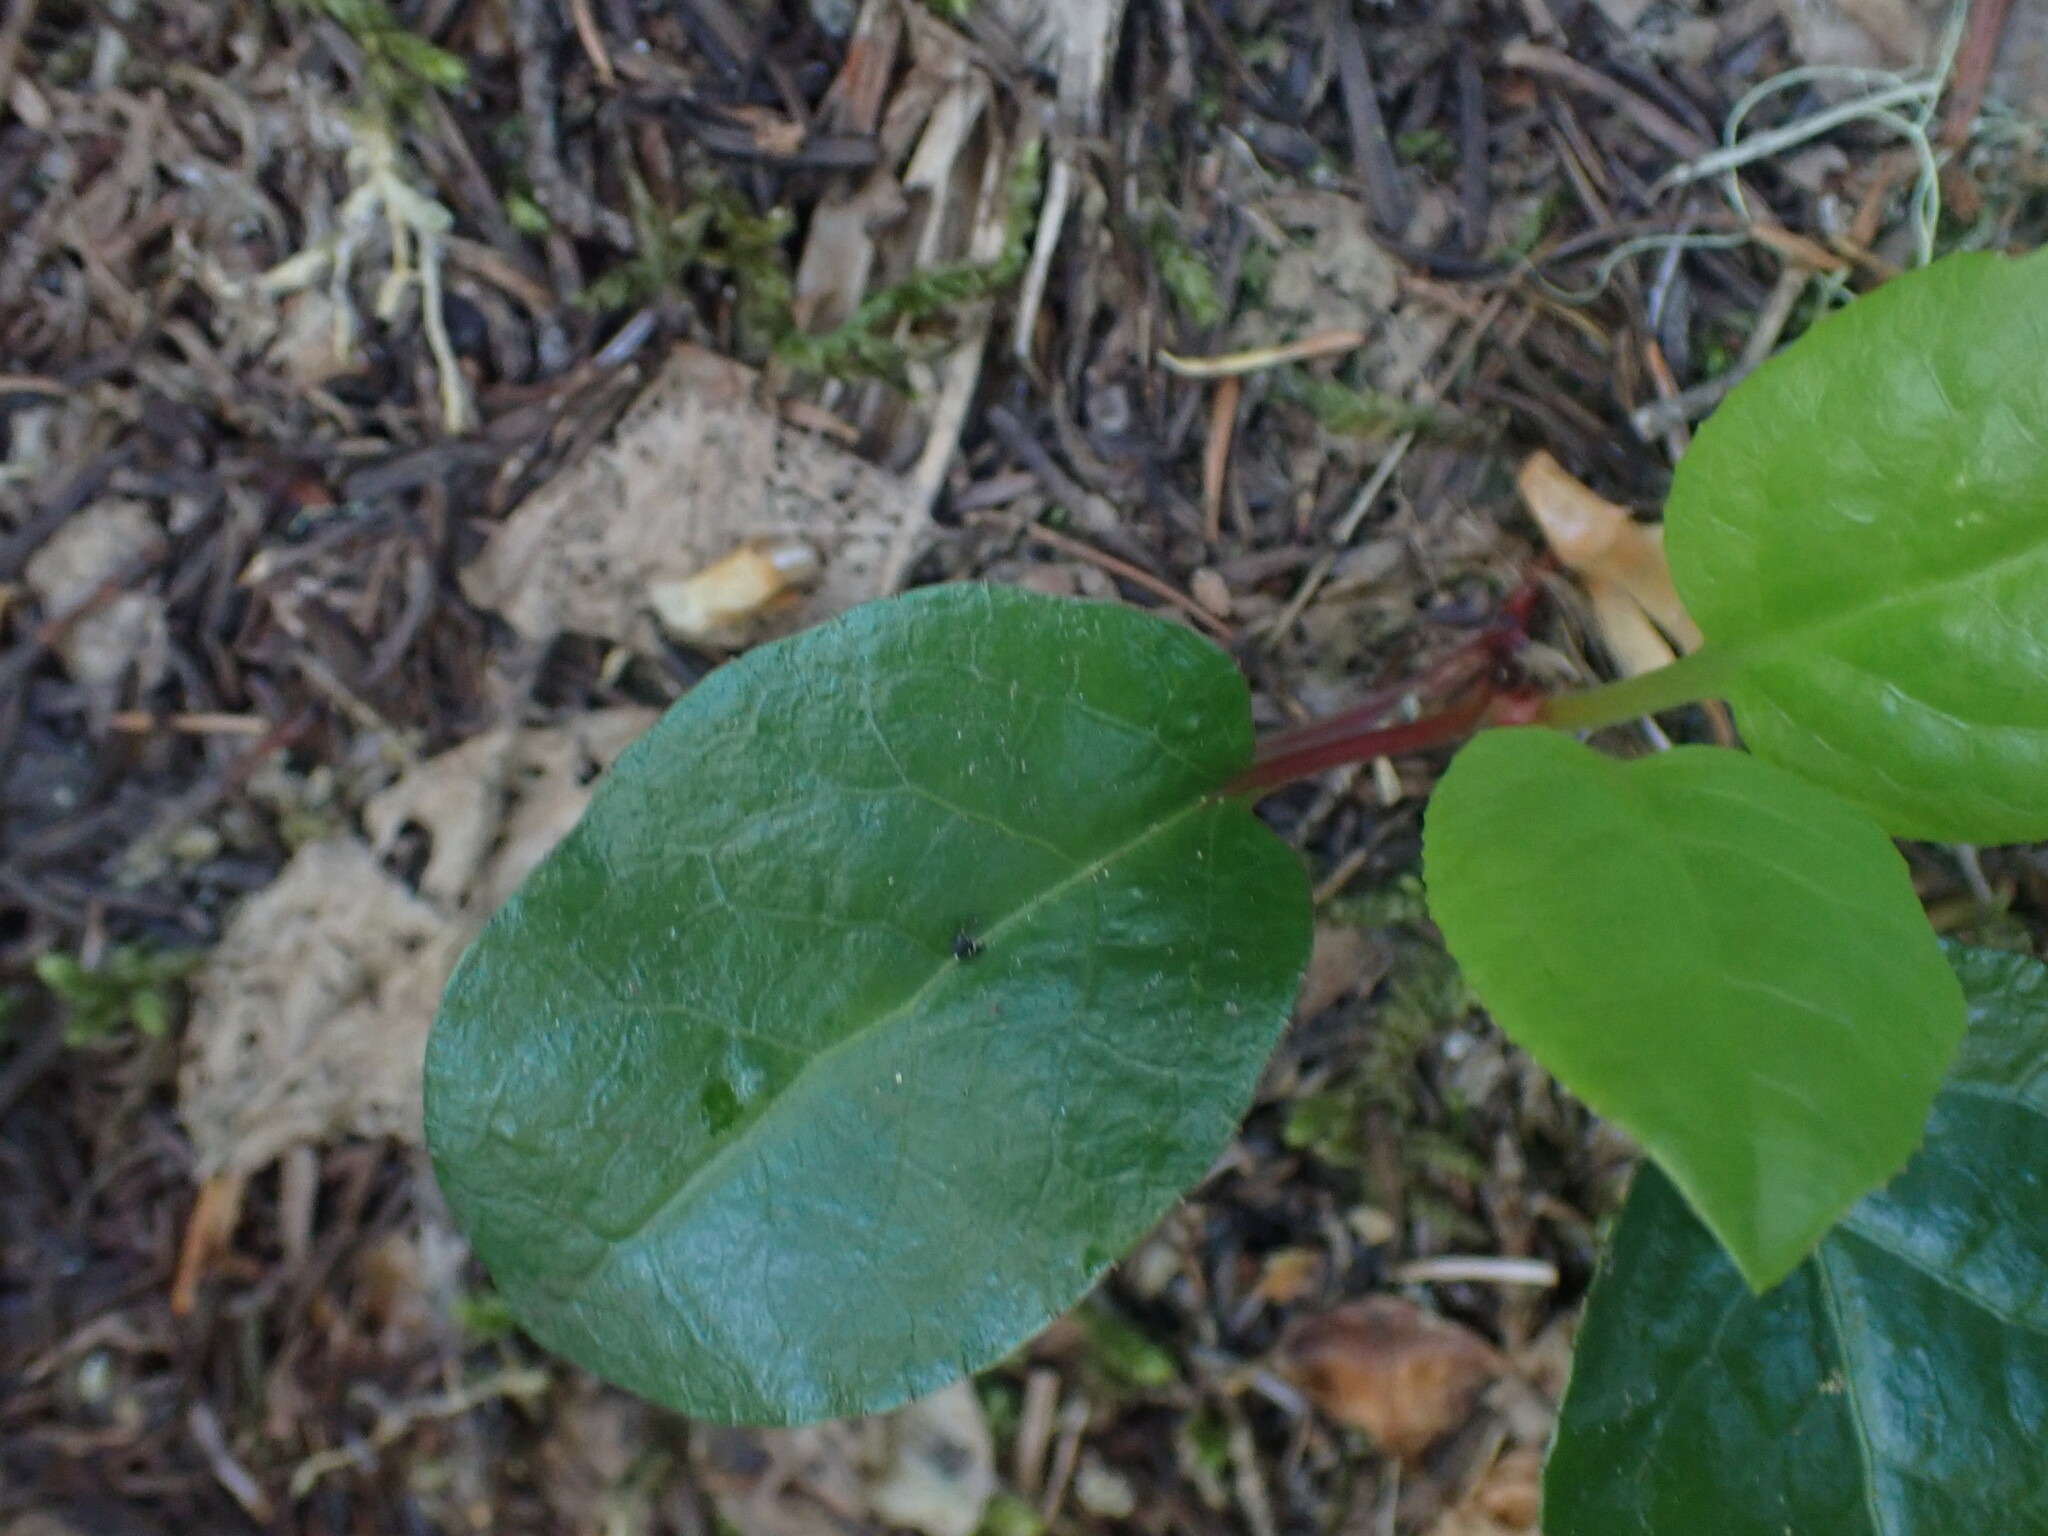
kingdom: Plantae
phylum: Tracheophyta
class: Magnoliopsida
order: Ericales
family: Ericaceae
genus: Pyrola
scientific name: Pyrola asarifolia
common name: Bog wintergreen
